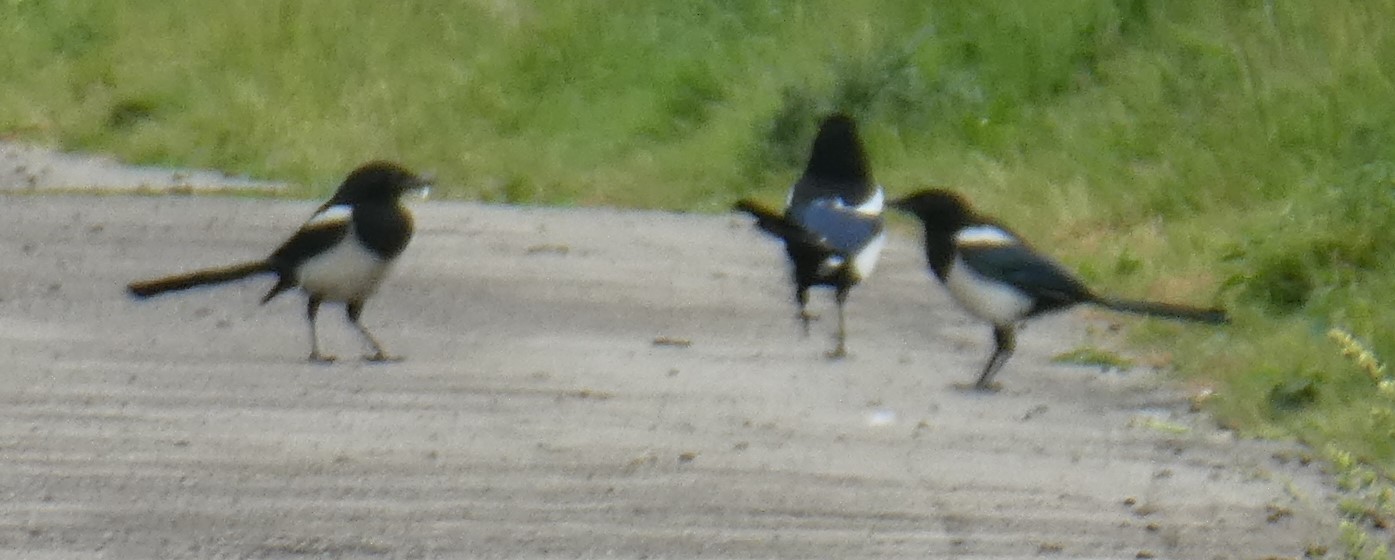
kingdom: Animalia
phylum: Chordata
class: Aves
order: Passeriformes
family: Corvidae
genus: Pica
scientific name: Pica pica
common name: Eurasian magpie
